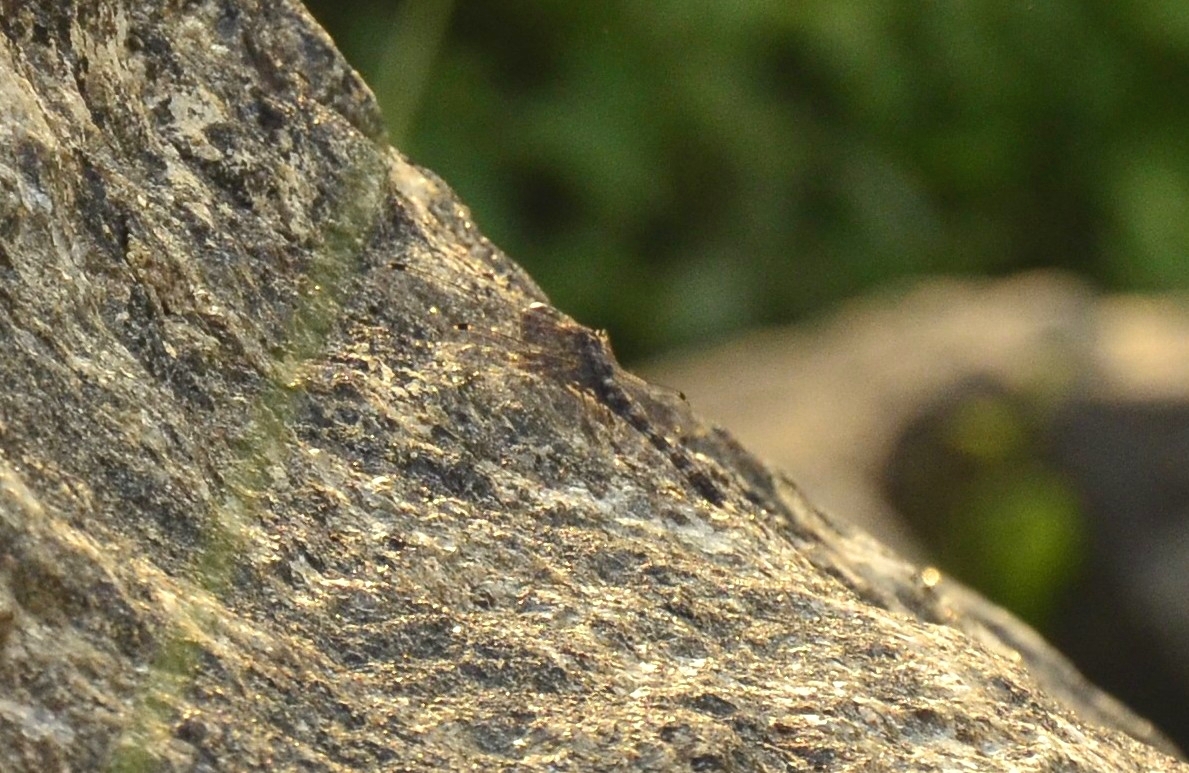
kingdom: Animalia
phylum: Arthropoda
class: Insecta
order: Odonata
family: Libellulidae
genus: Bradinopyga
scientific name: Bradinopyga geminata
